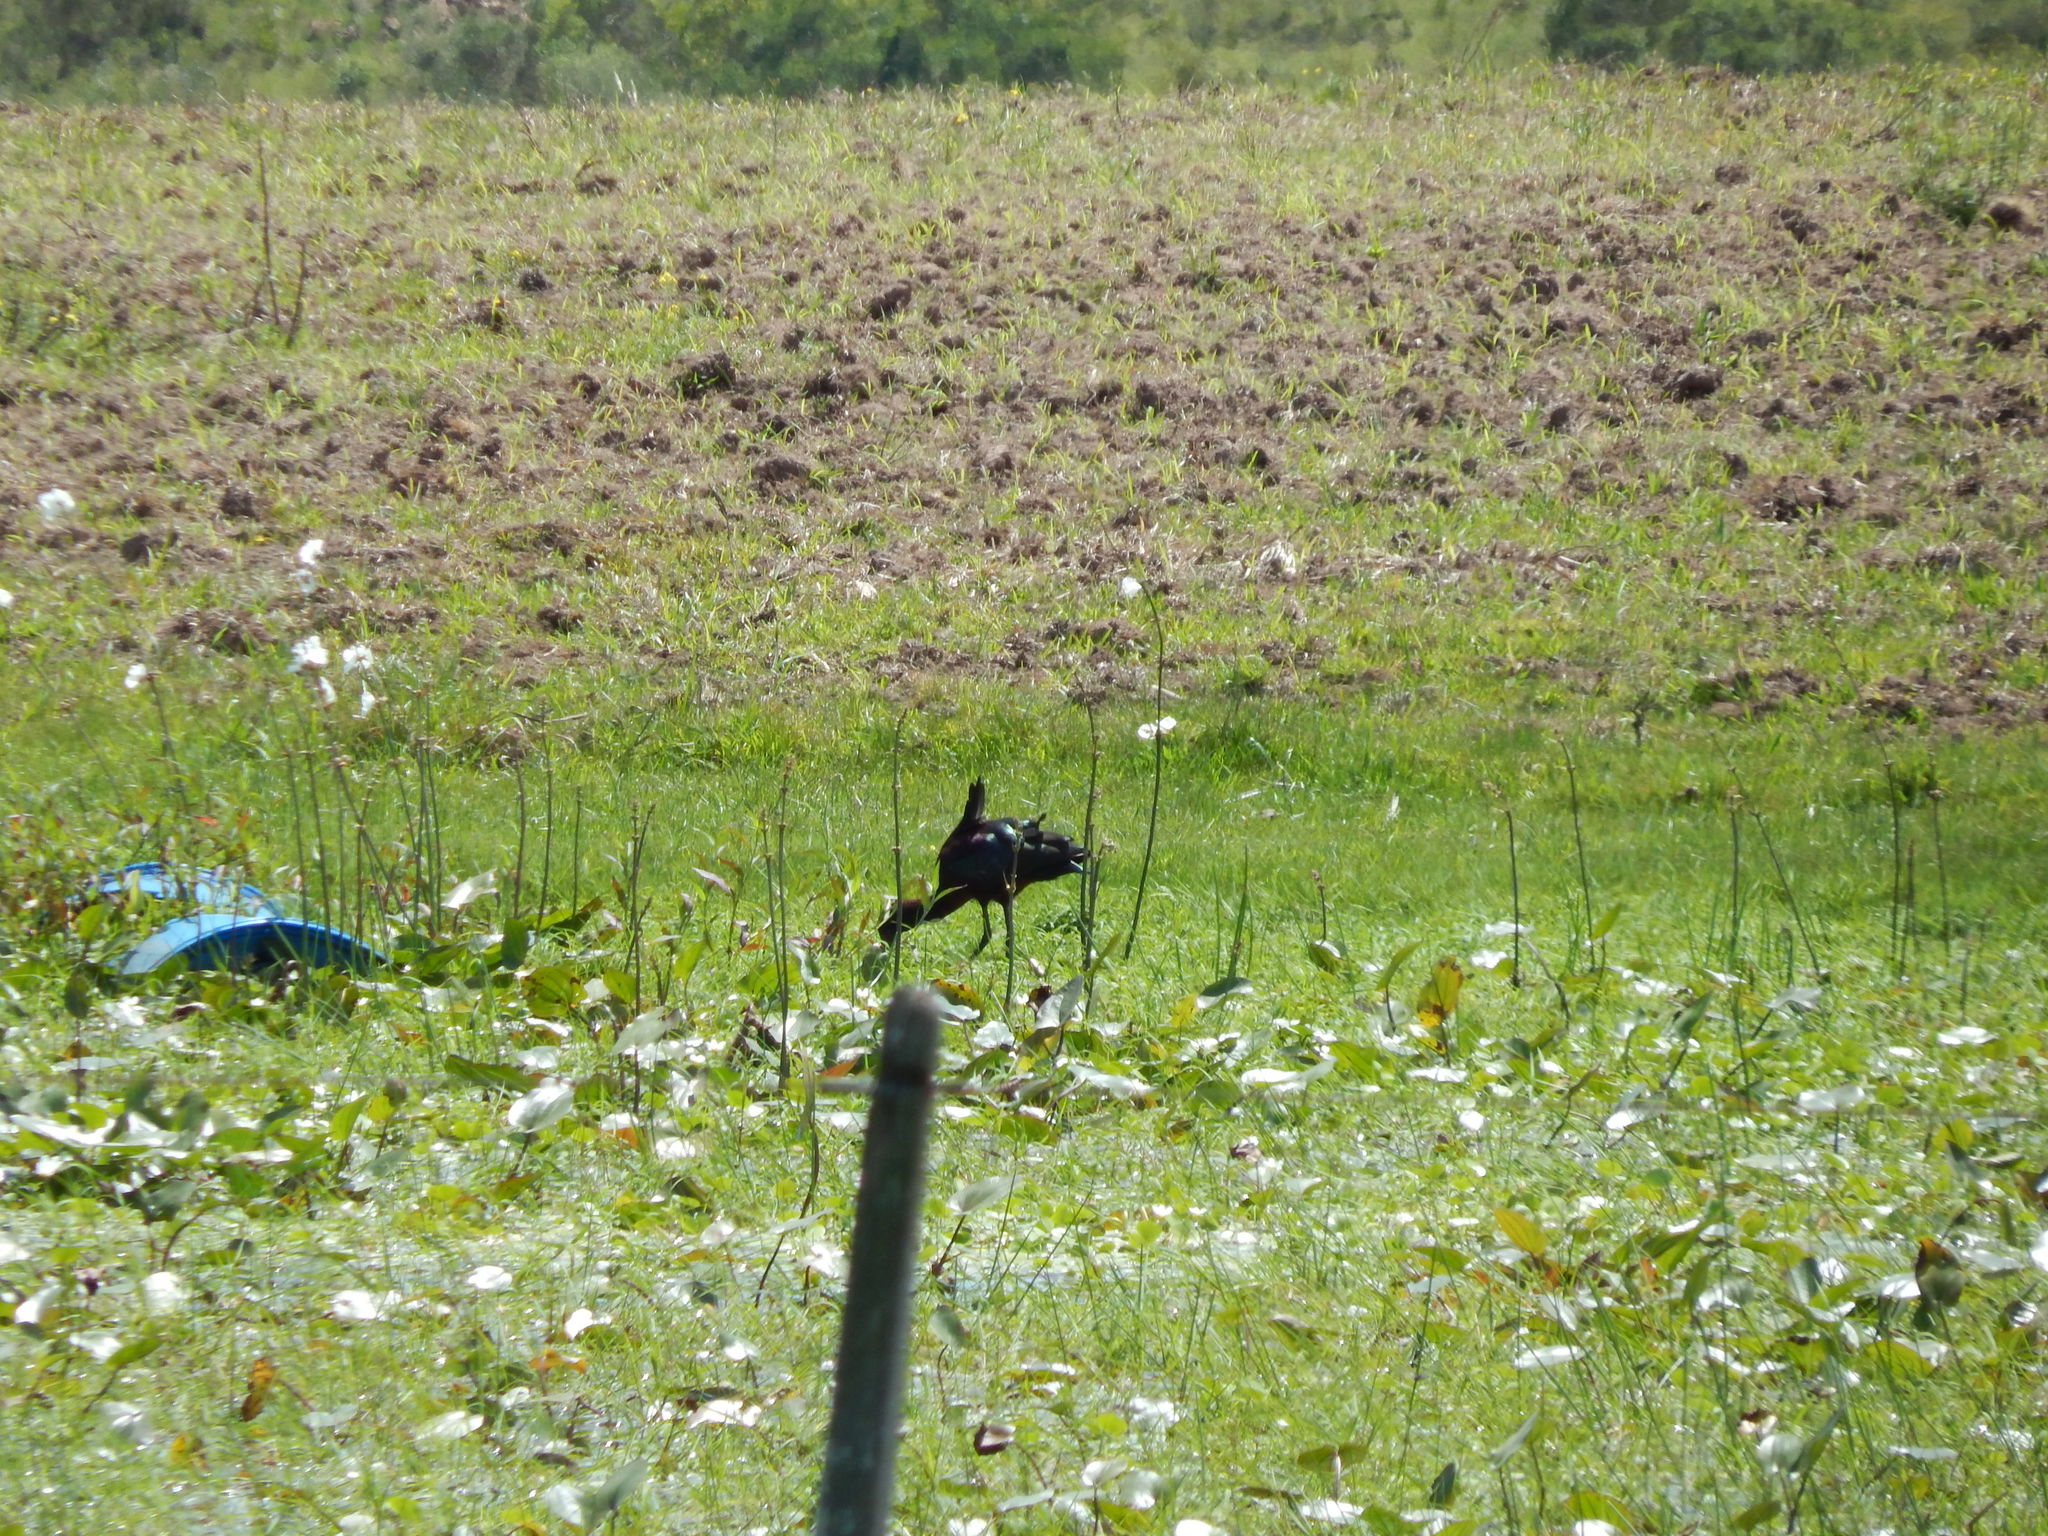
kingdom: Animalia
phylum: Chordata
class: Aves
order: Pelecaniformes
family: Threskiornithidae
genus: Plegadis
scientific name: Plegadis chihi
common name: White-faced ibis
